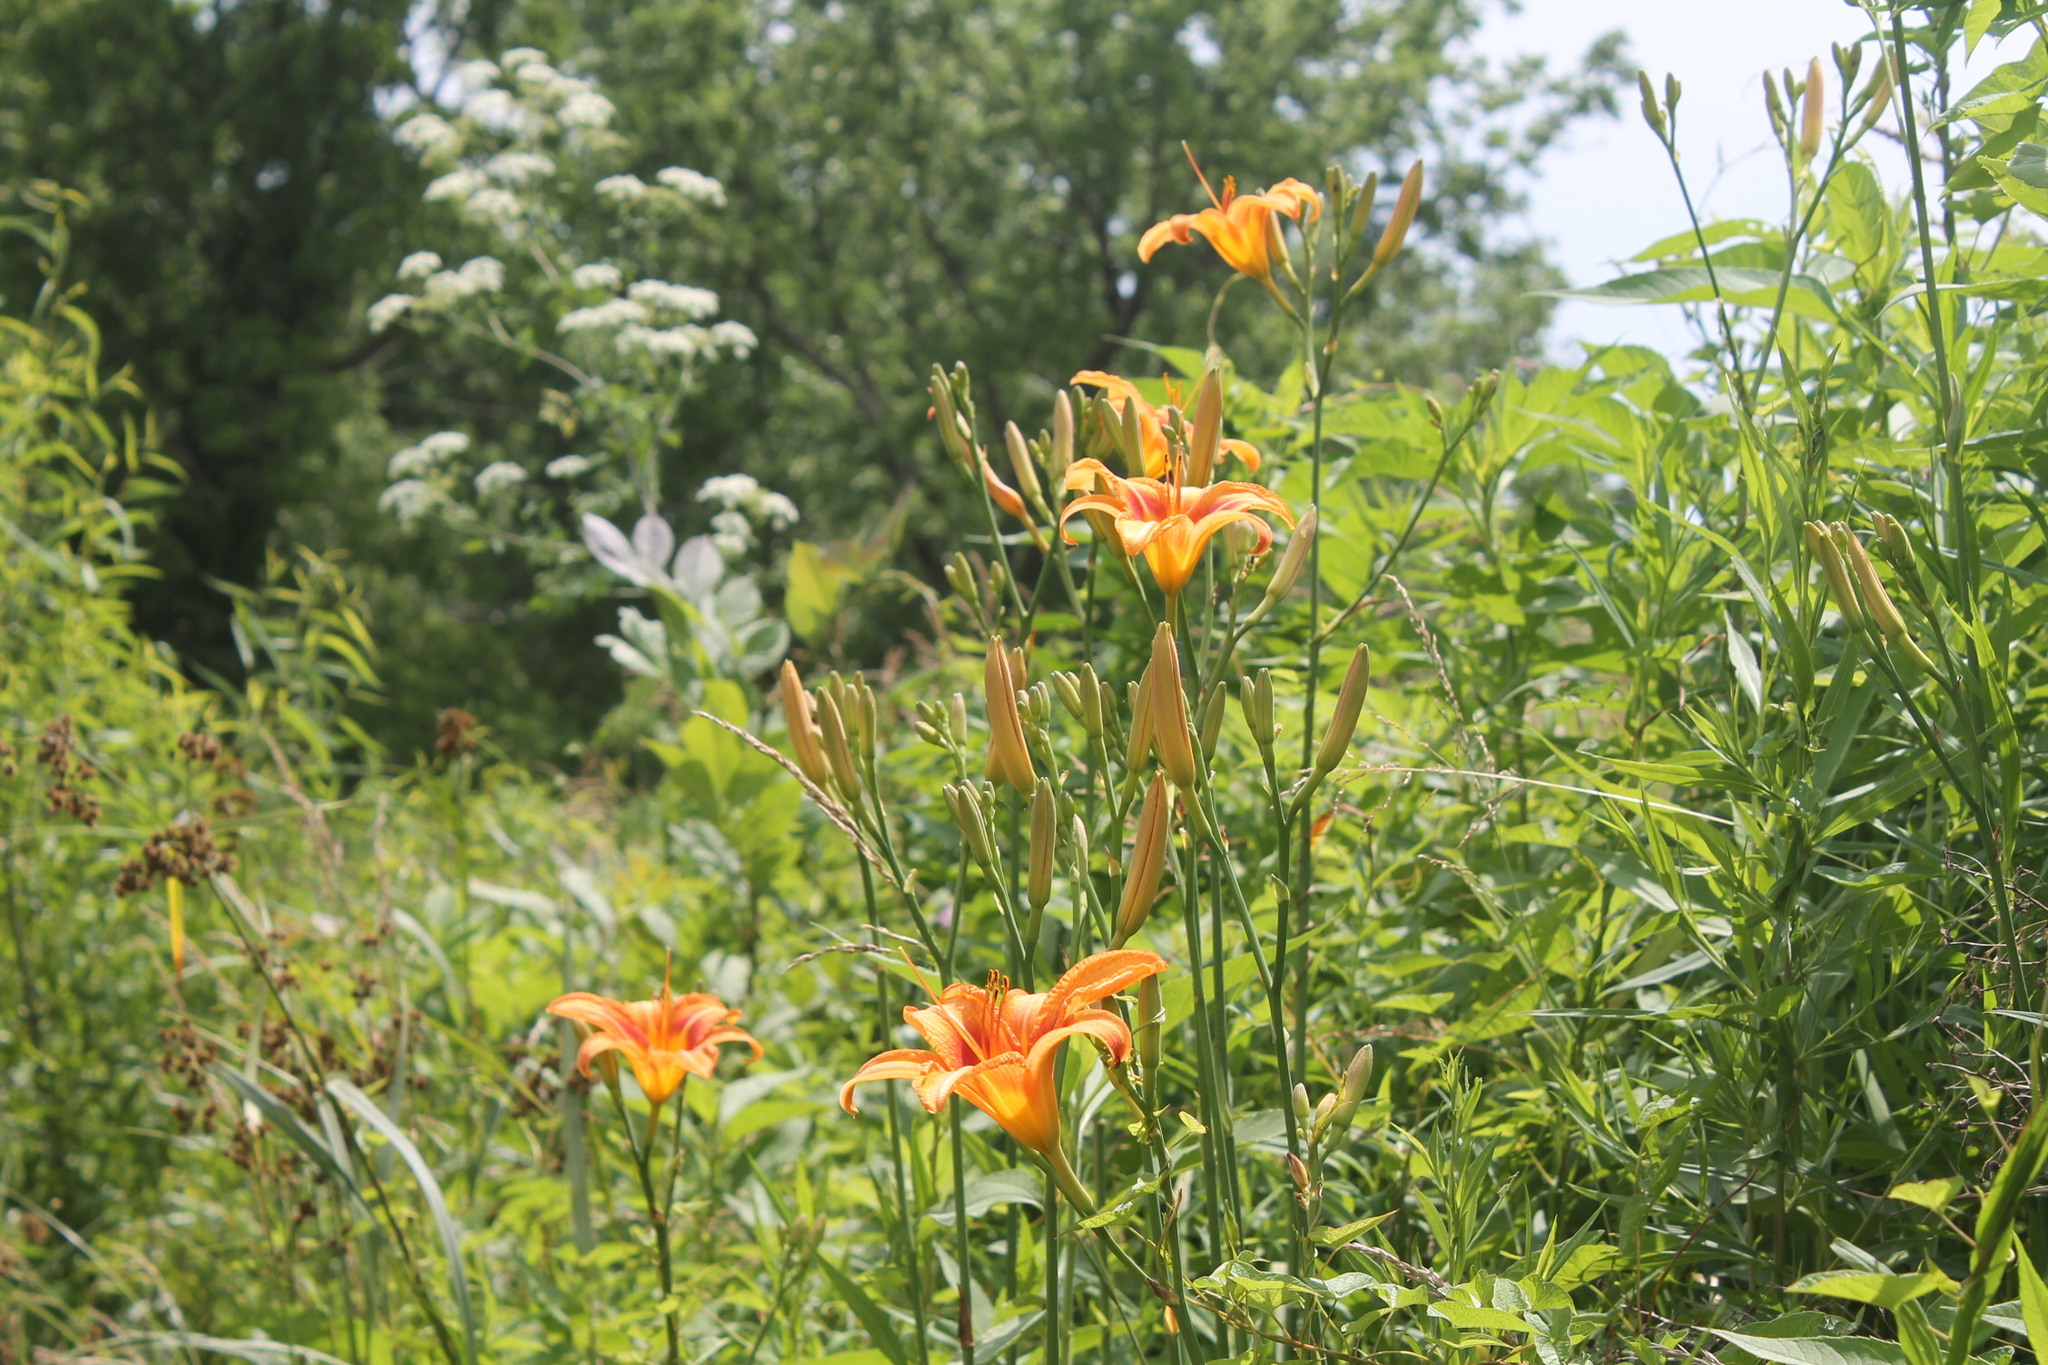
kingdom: Plantae
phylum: Tracheophyta
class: Liliopsida
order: Asparagales
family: Asphodelaceae
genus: Hemerocallis
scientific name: Hemerocallis fulva
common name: Orange day-lily
